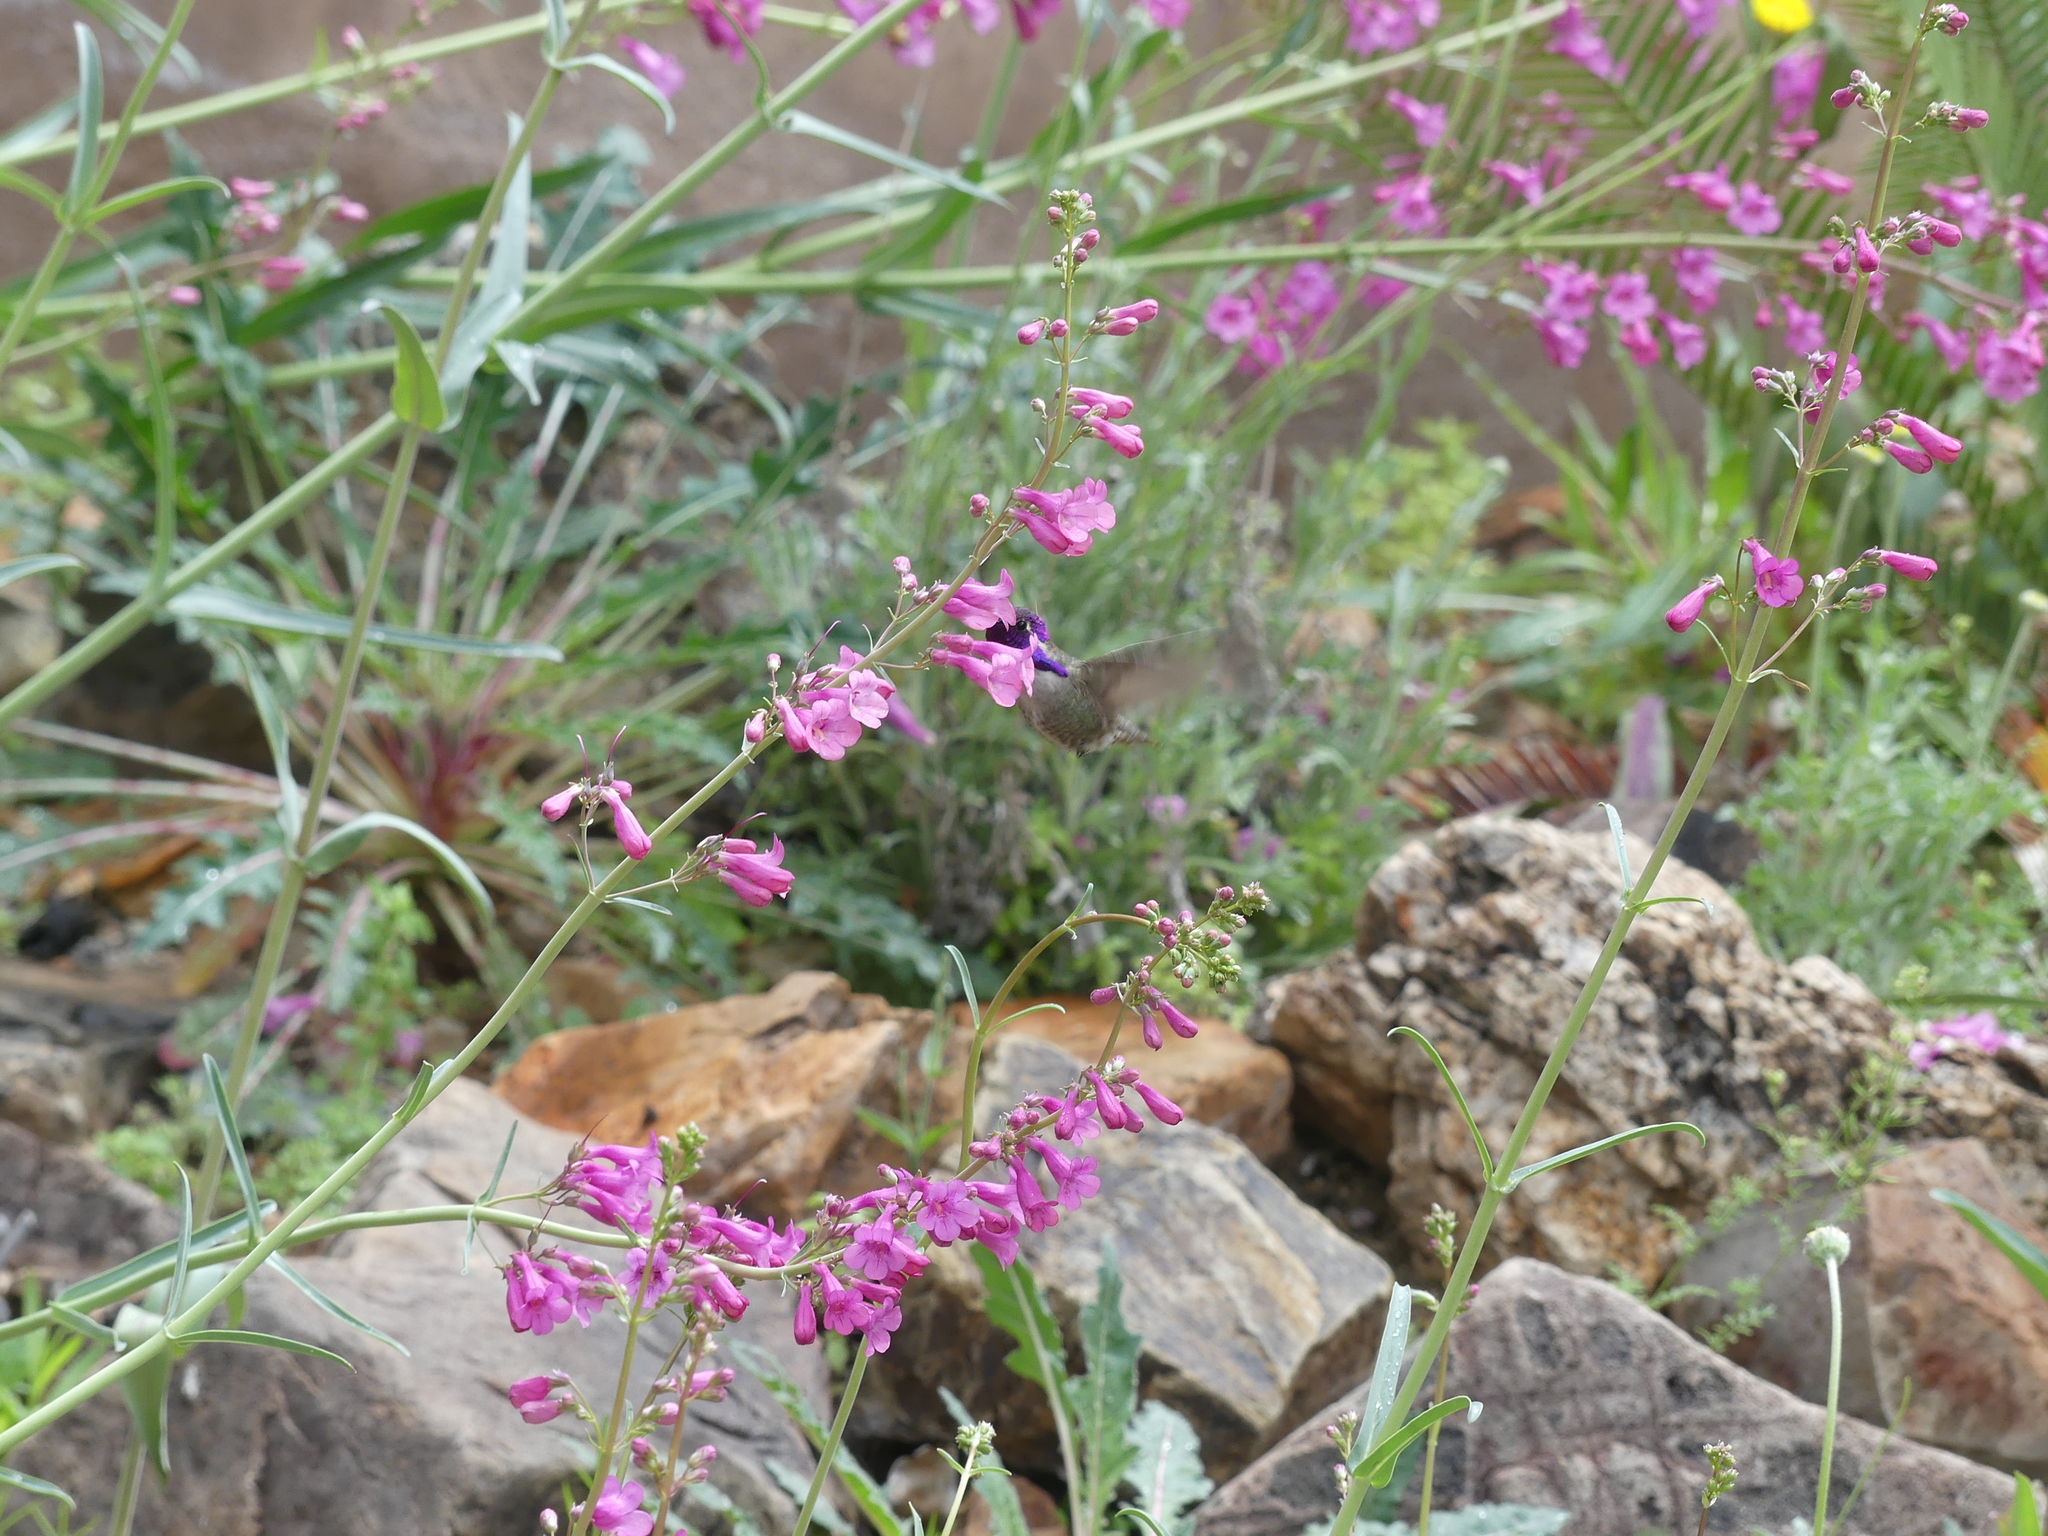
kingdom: Animalia
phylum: Chordata
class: Aves
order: Apodiformes
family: Trochilidae
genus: Calypte
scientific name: Calypte costae
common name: Costa's hummingbird
